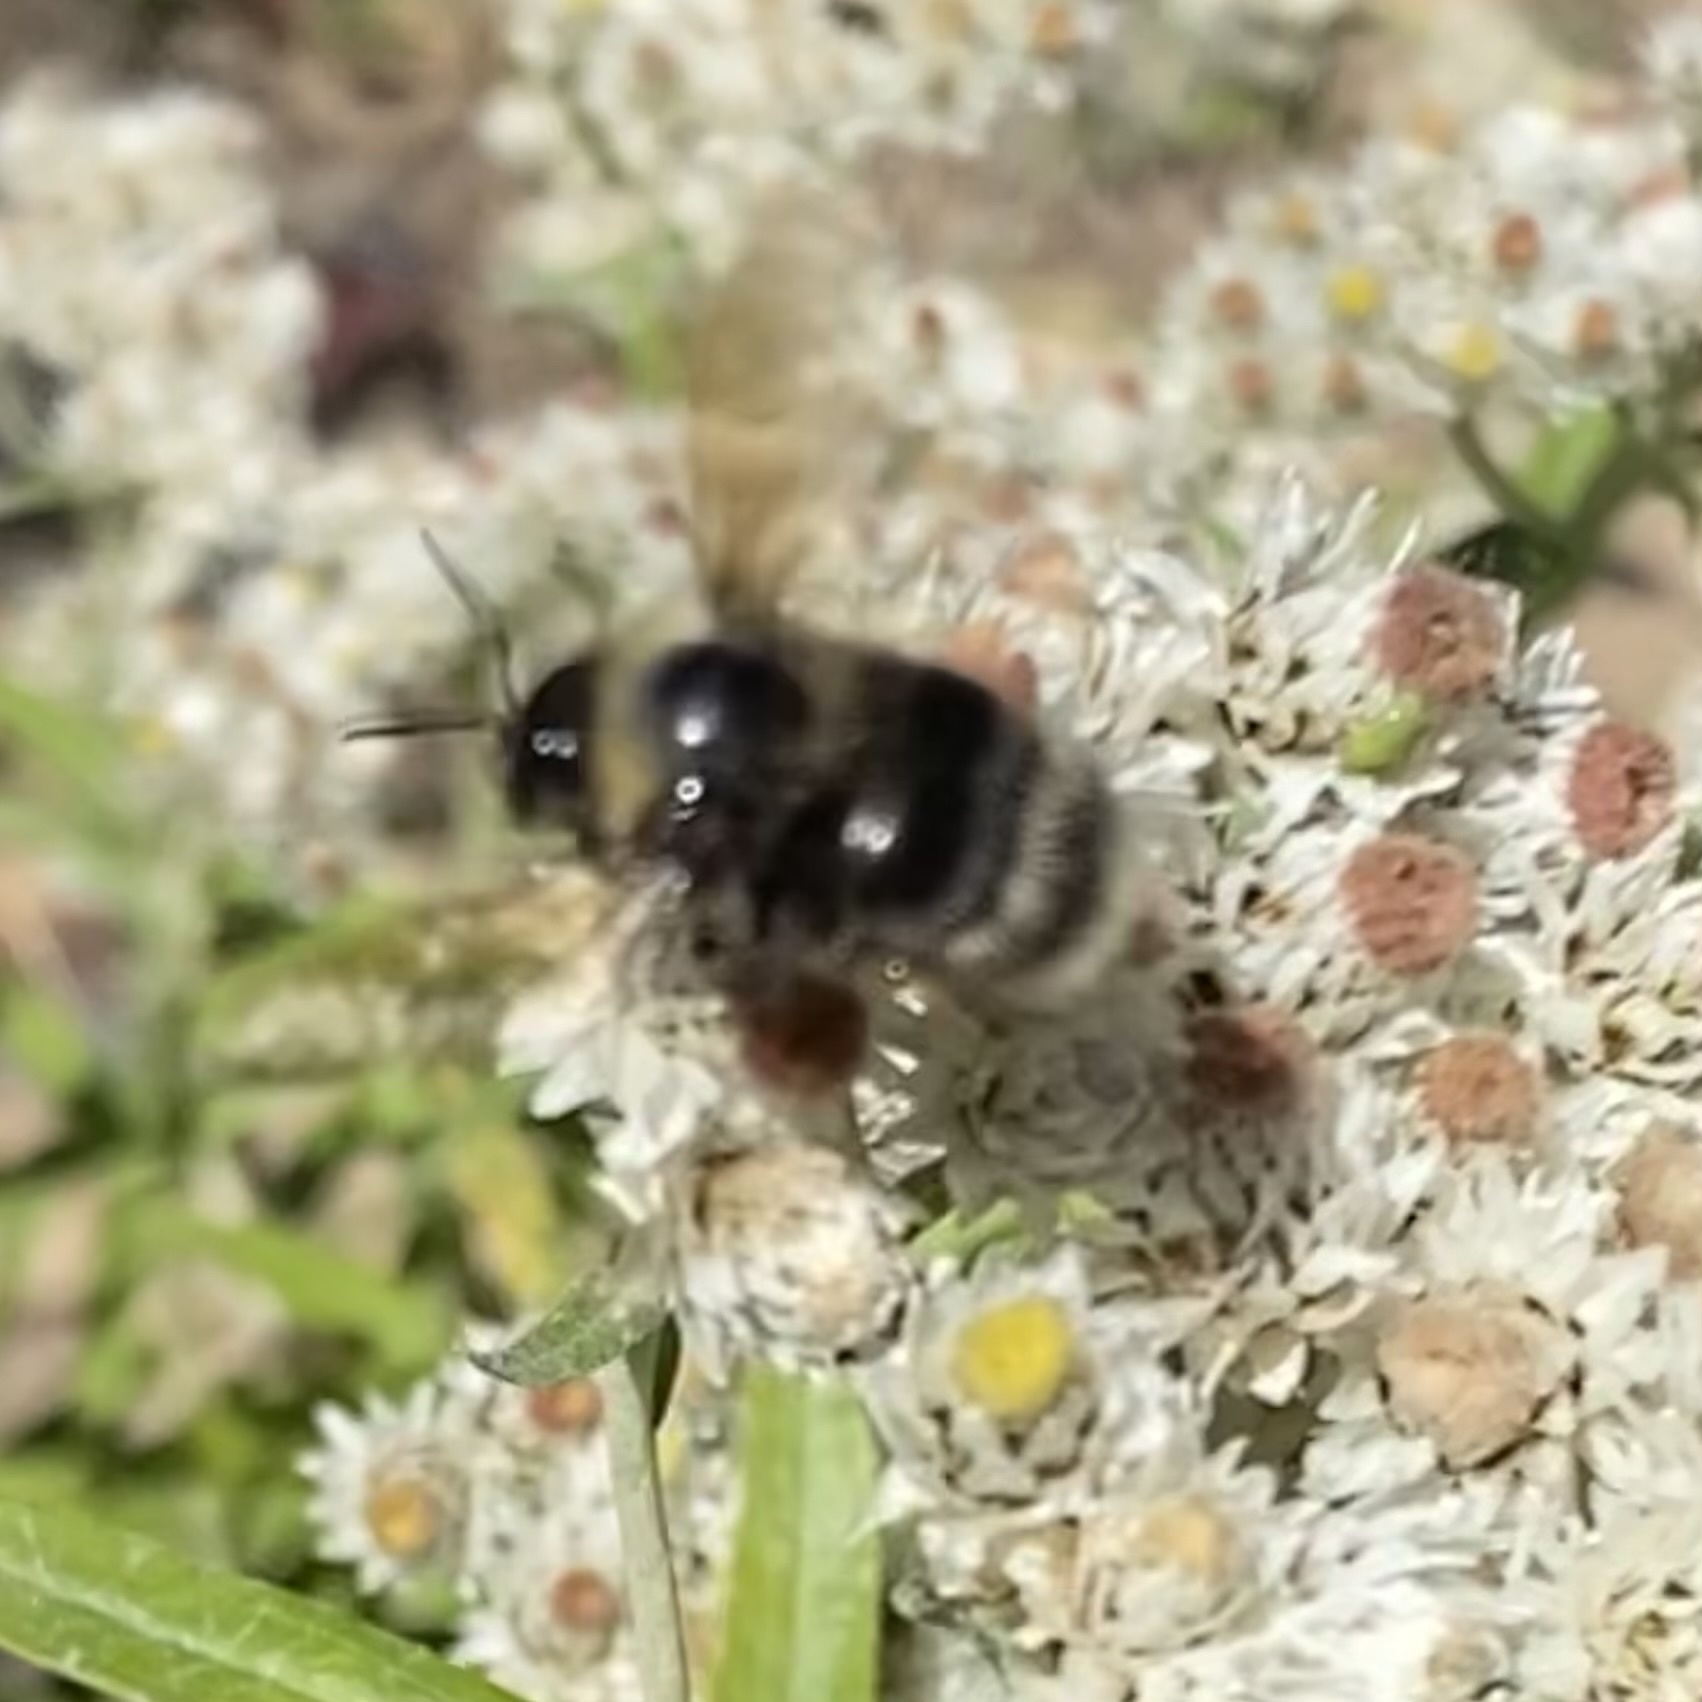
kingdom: Animalia
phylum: Arthropoda
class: Insecta
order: Hymenoptera
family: Apidae
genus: Bombus
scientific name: Bombus occidentalis
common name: Western bumble bee
